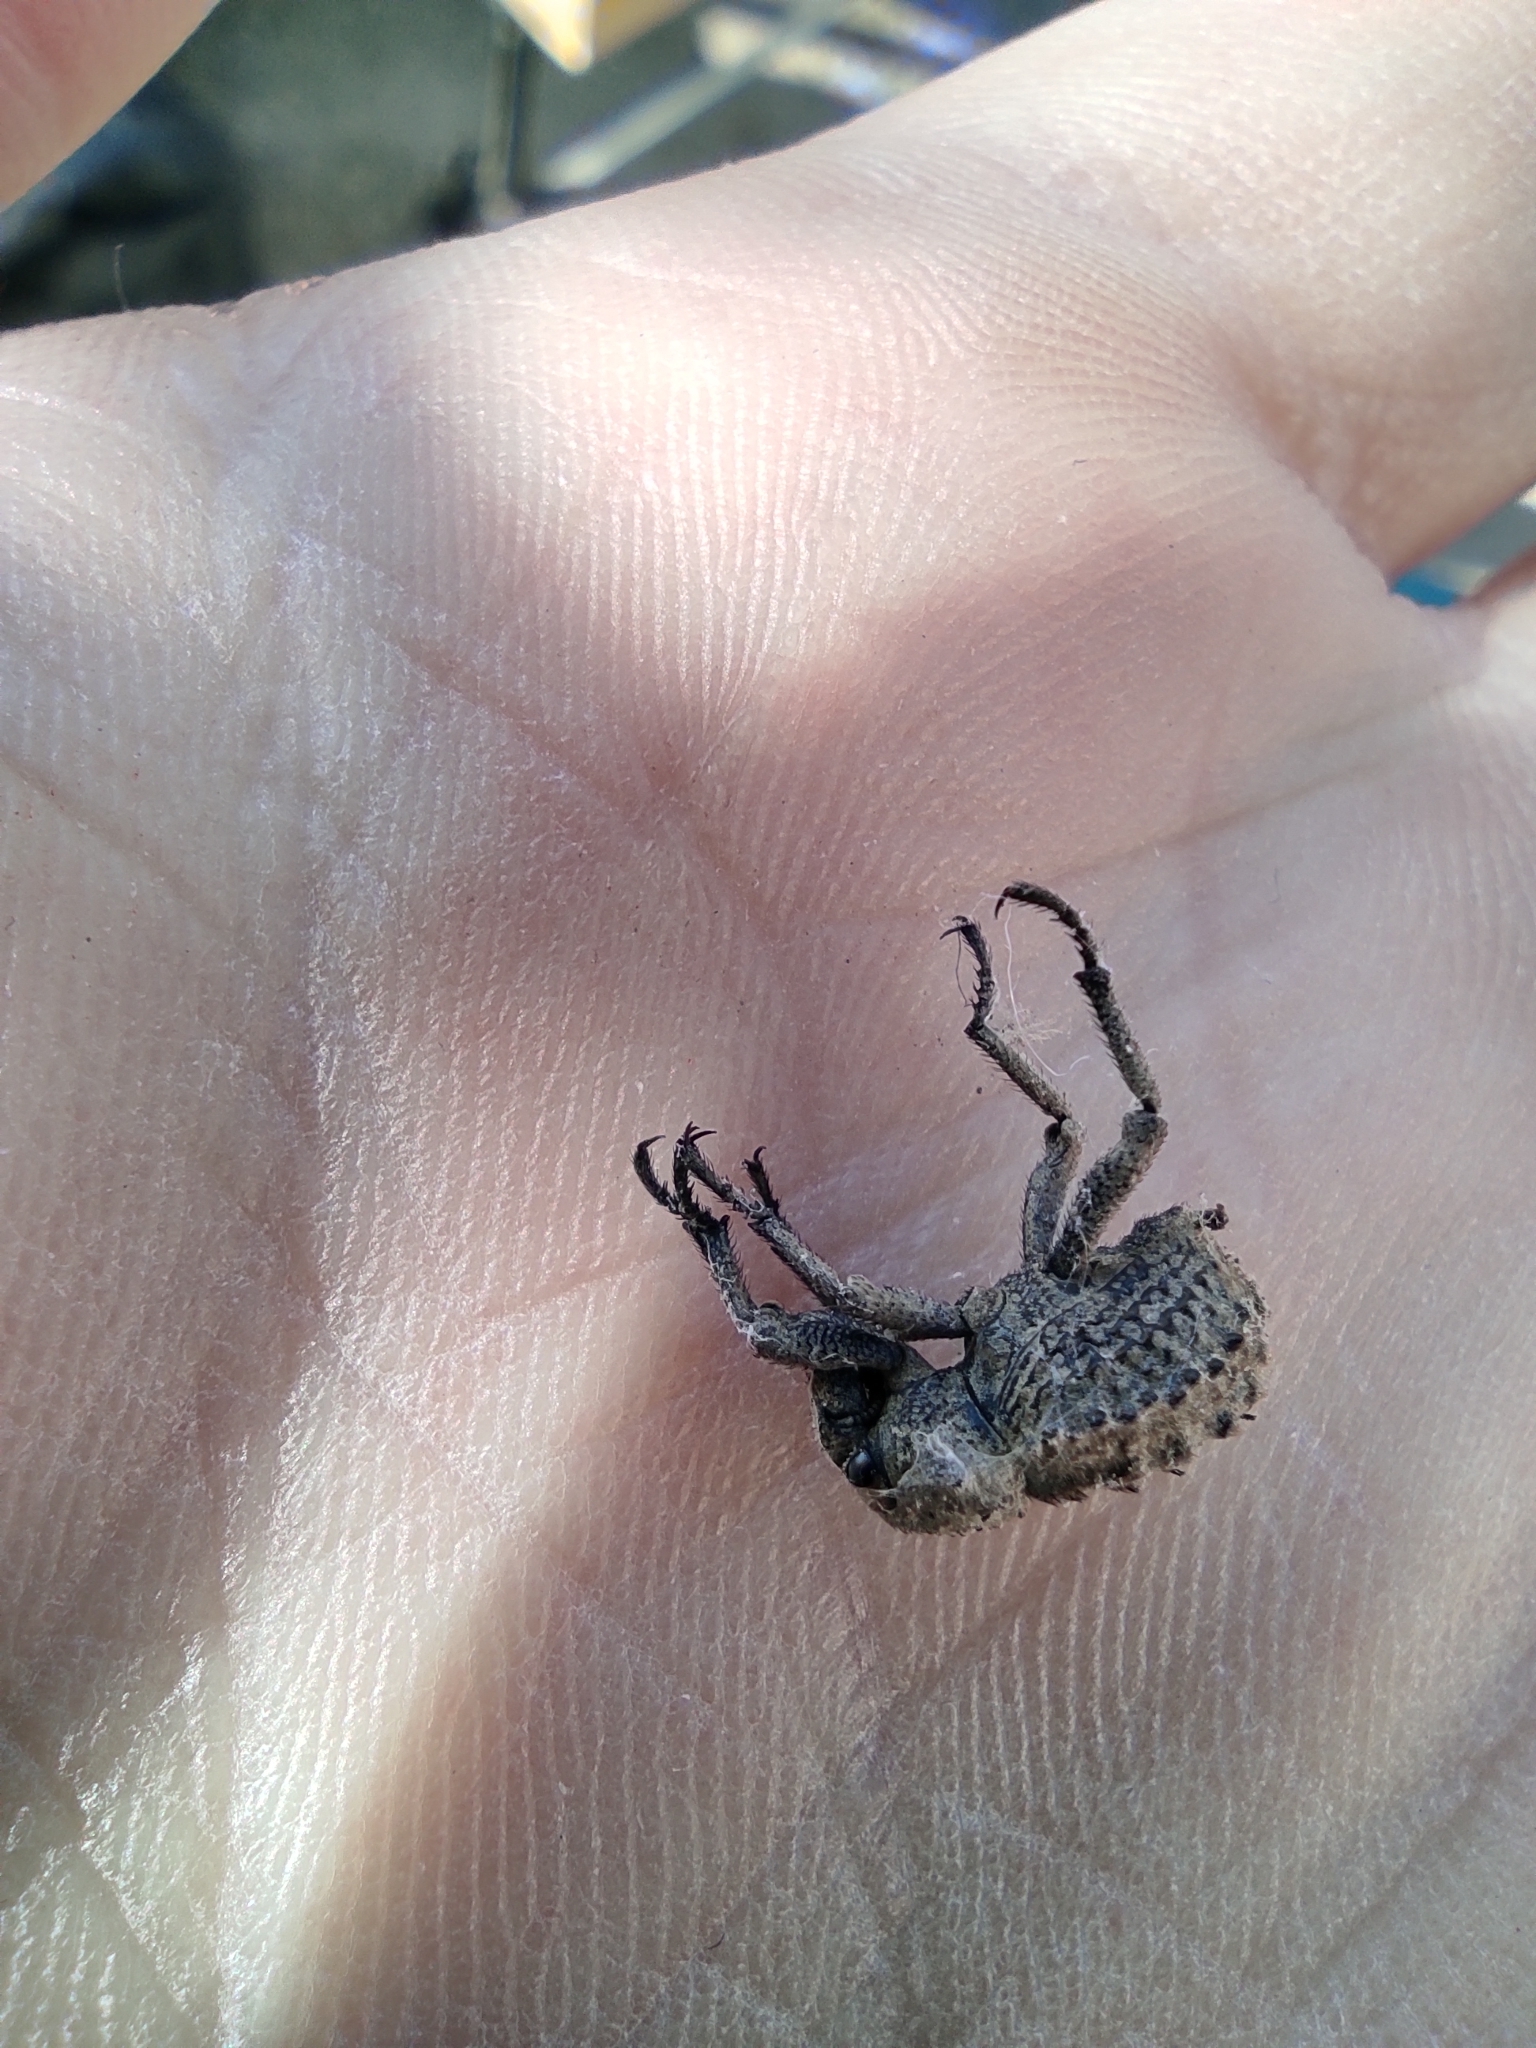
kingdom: Animalia
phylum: Arthropoda
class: Insecta
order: Coleoptera
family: Brachyceridae
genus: Brachycerus
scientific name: Brachycerus muricatus
